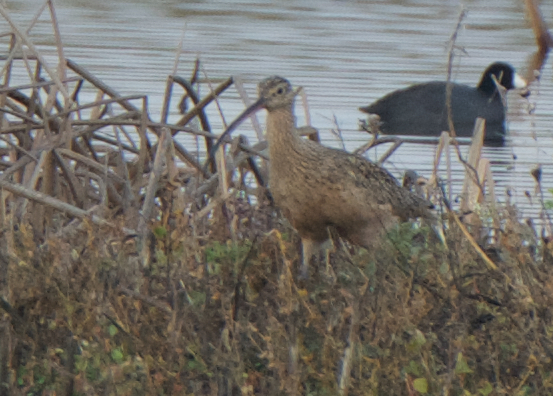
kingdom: Animalia
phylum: Chordata
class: Aves
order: Charadriiformes
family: Scolopacidae
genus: Numenius
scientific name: Numenius americanus
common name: Long-billed curlew
